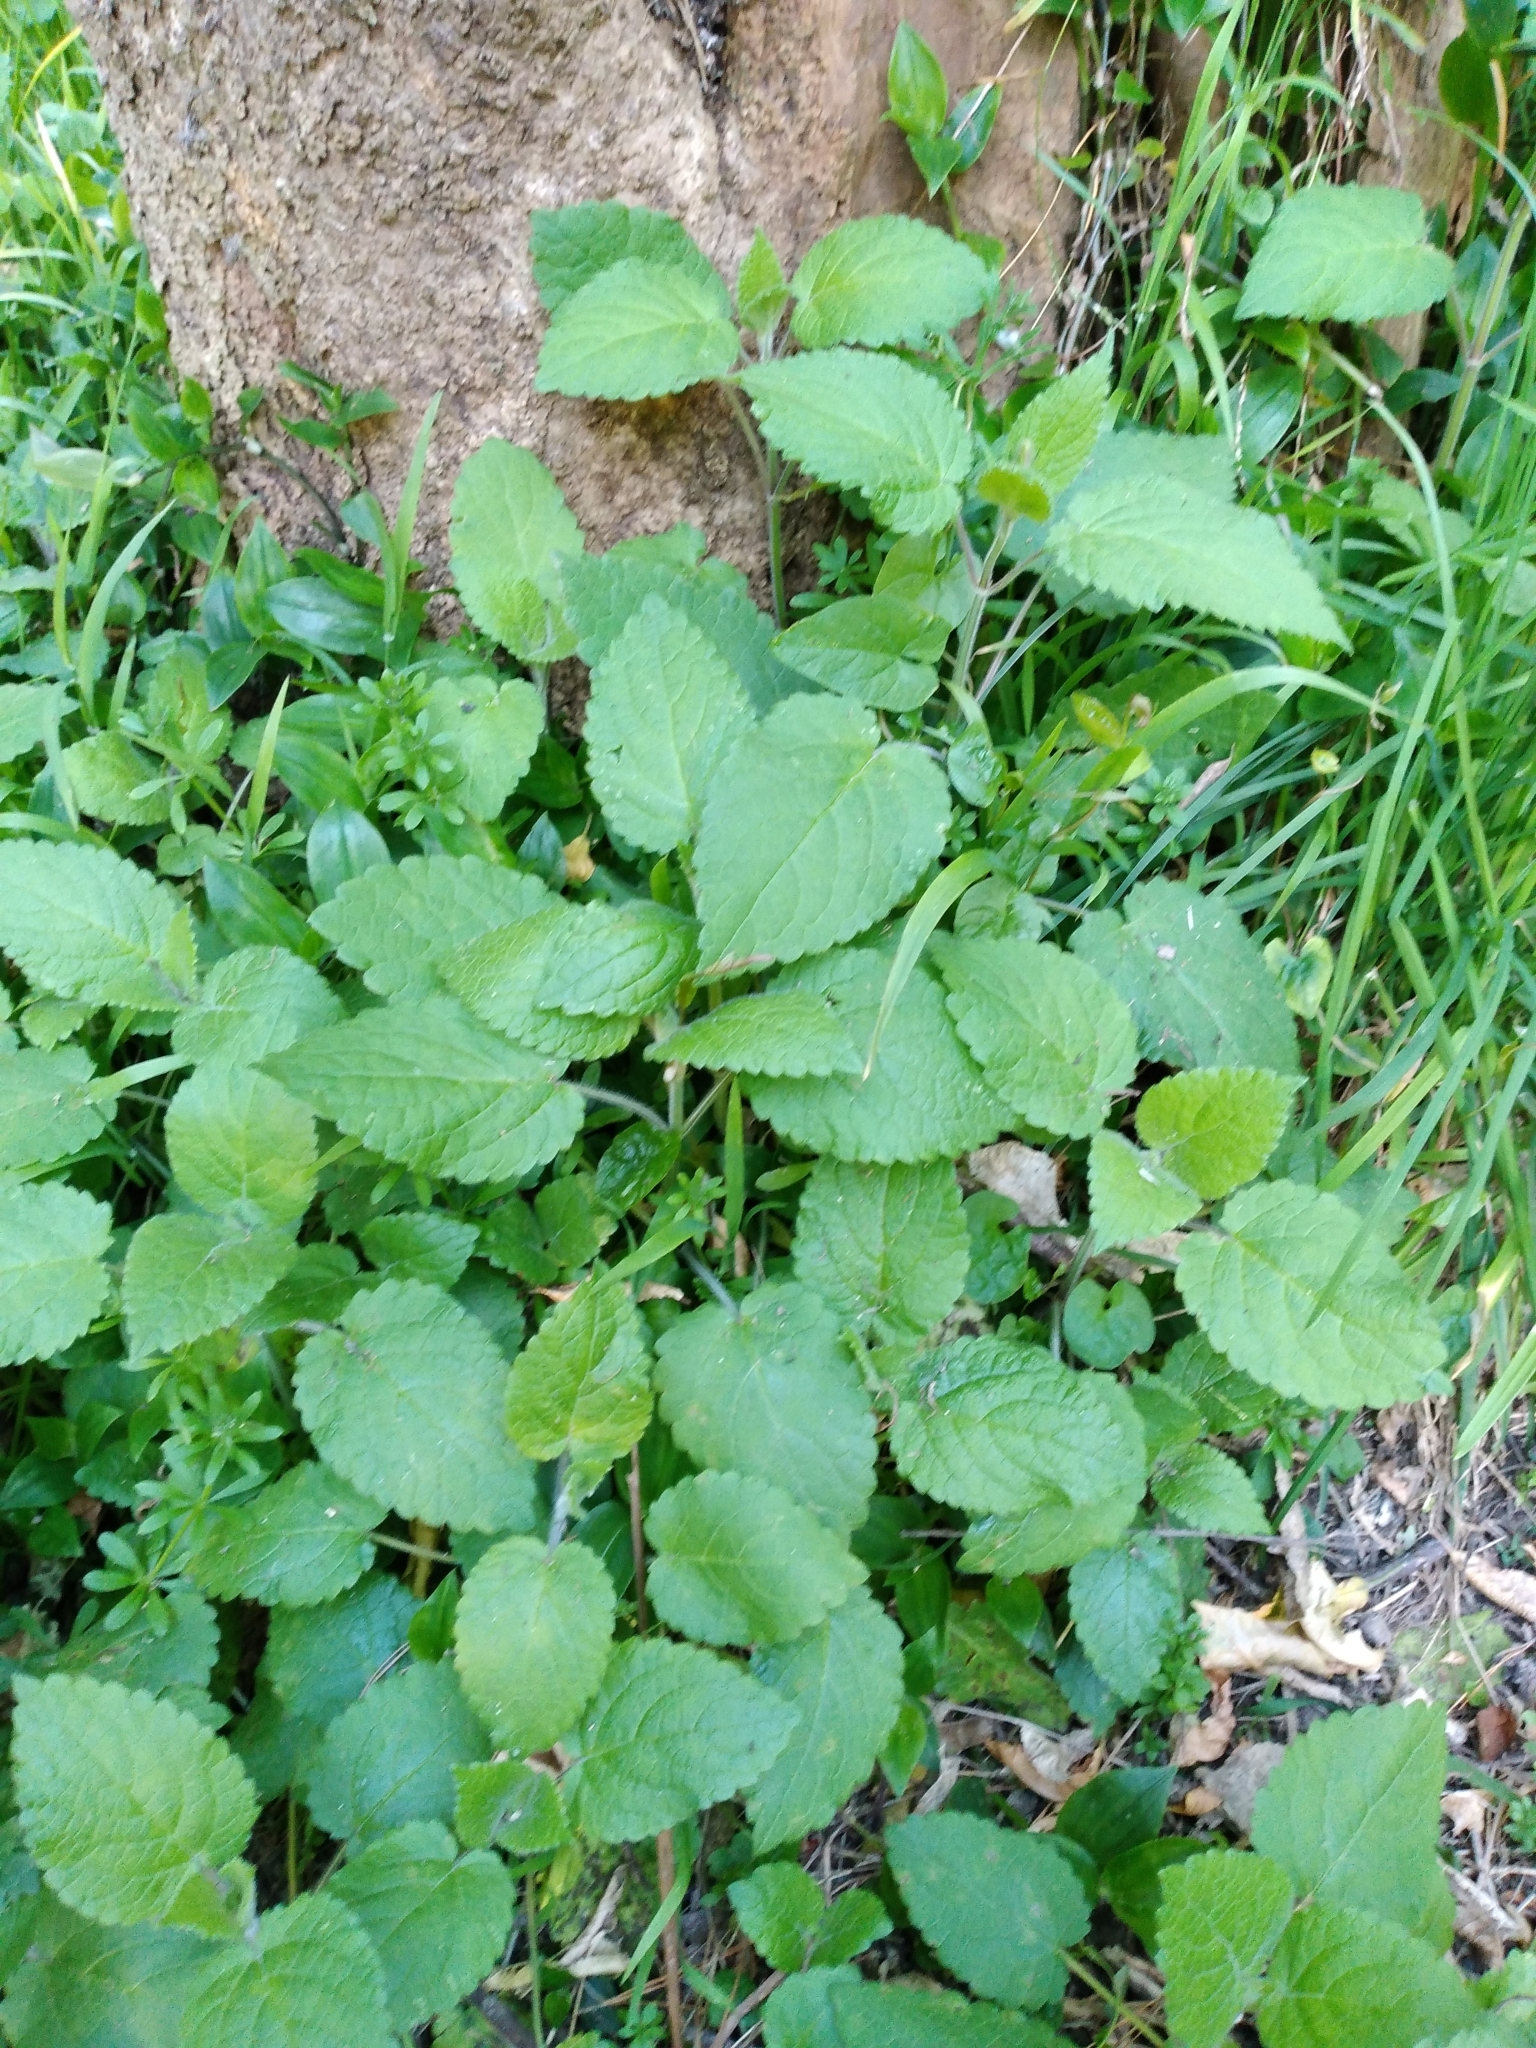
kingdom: Plantae
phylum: Tracheophyta
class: Magnoliopsida
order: Lamiales
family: Lamiaceae
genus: Stachys
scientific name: Stachys sylvatica
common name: Hedge woundwort
